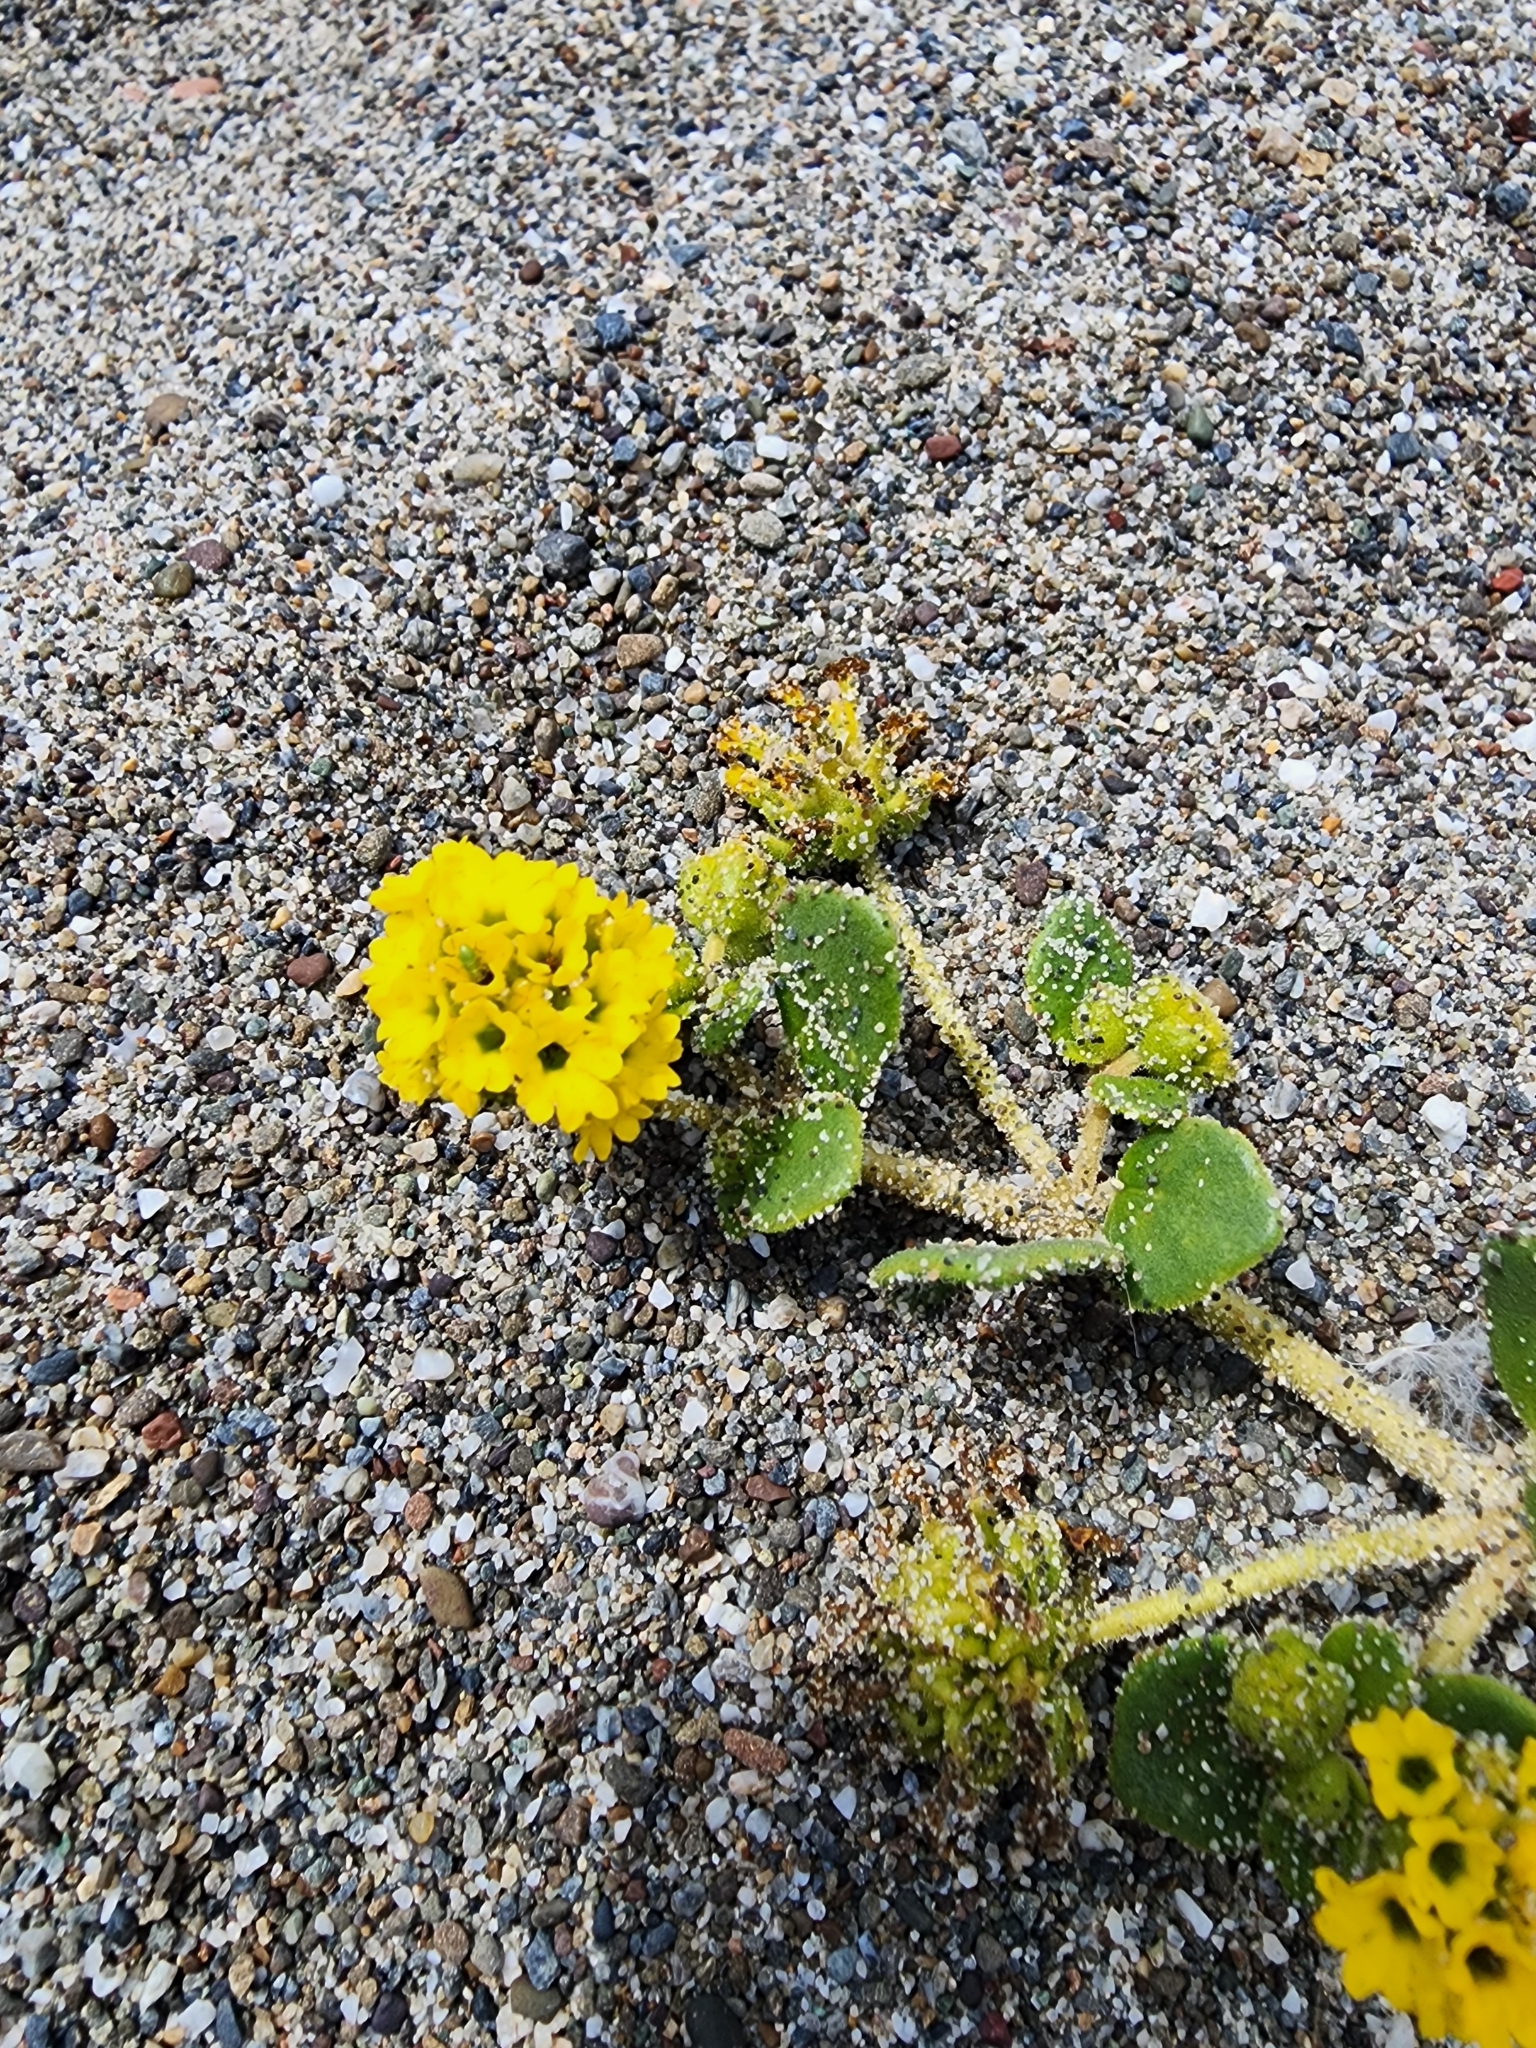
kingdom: Plantae
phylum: Tracheophyta
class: Magnoliopsida
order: Caryophyllales
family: Nyctaginaceae
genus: Abronia
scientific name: Abronia latifolia
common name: Yellow sand-verbena
